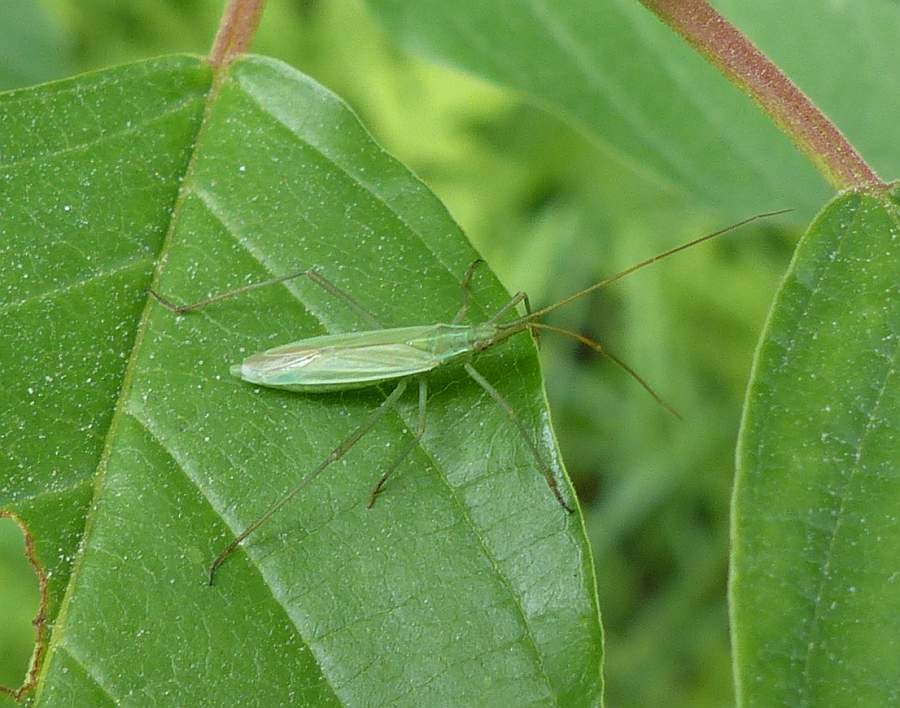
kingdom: Animalia
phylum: Arthropoda
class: Insecta
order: Hemiptera
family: Miridae
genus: Megaloceroea
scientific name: Megaloceroea recticornis
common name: Plant bug
